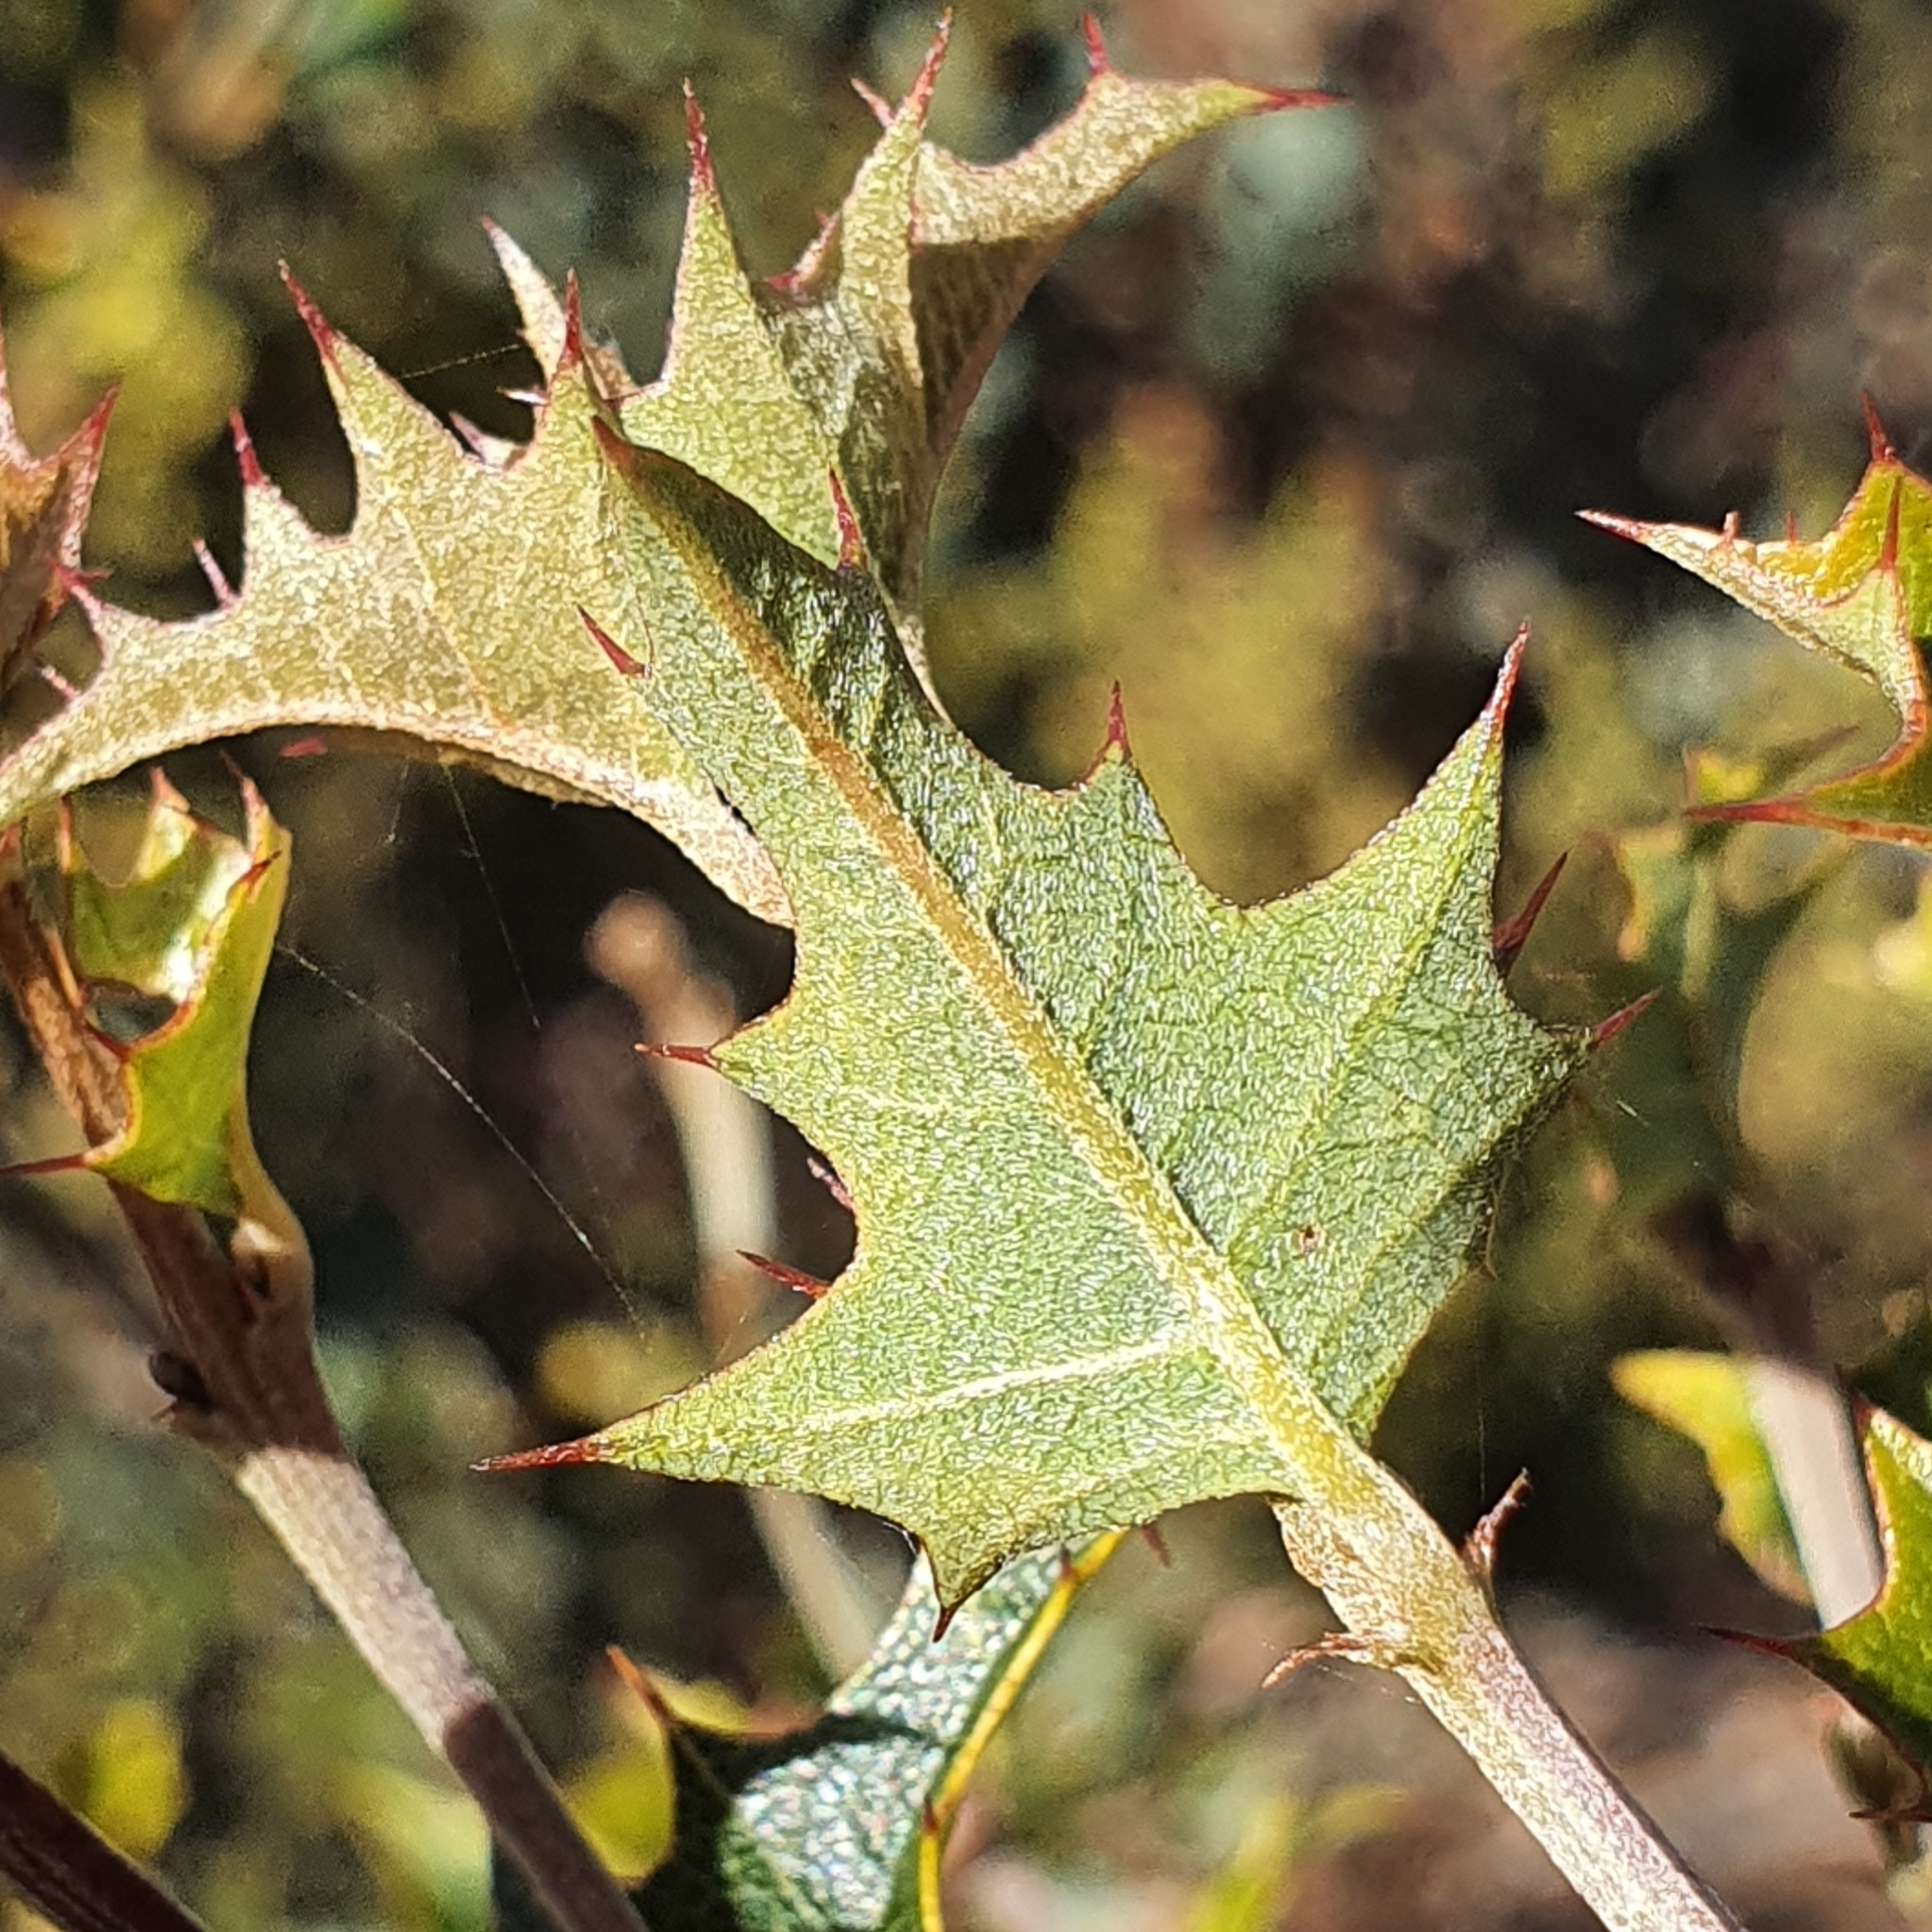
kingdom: Plantae
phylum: Tracheophyta
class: Magnoliopsida
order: Fabales
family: Fabaceae
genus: Podolobium
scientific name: Podolobium ilicifolium
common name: Native holly
